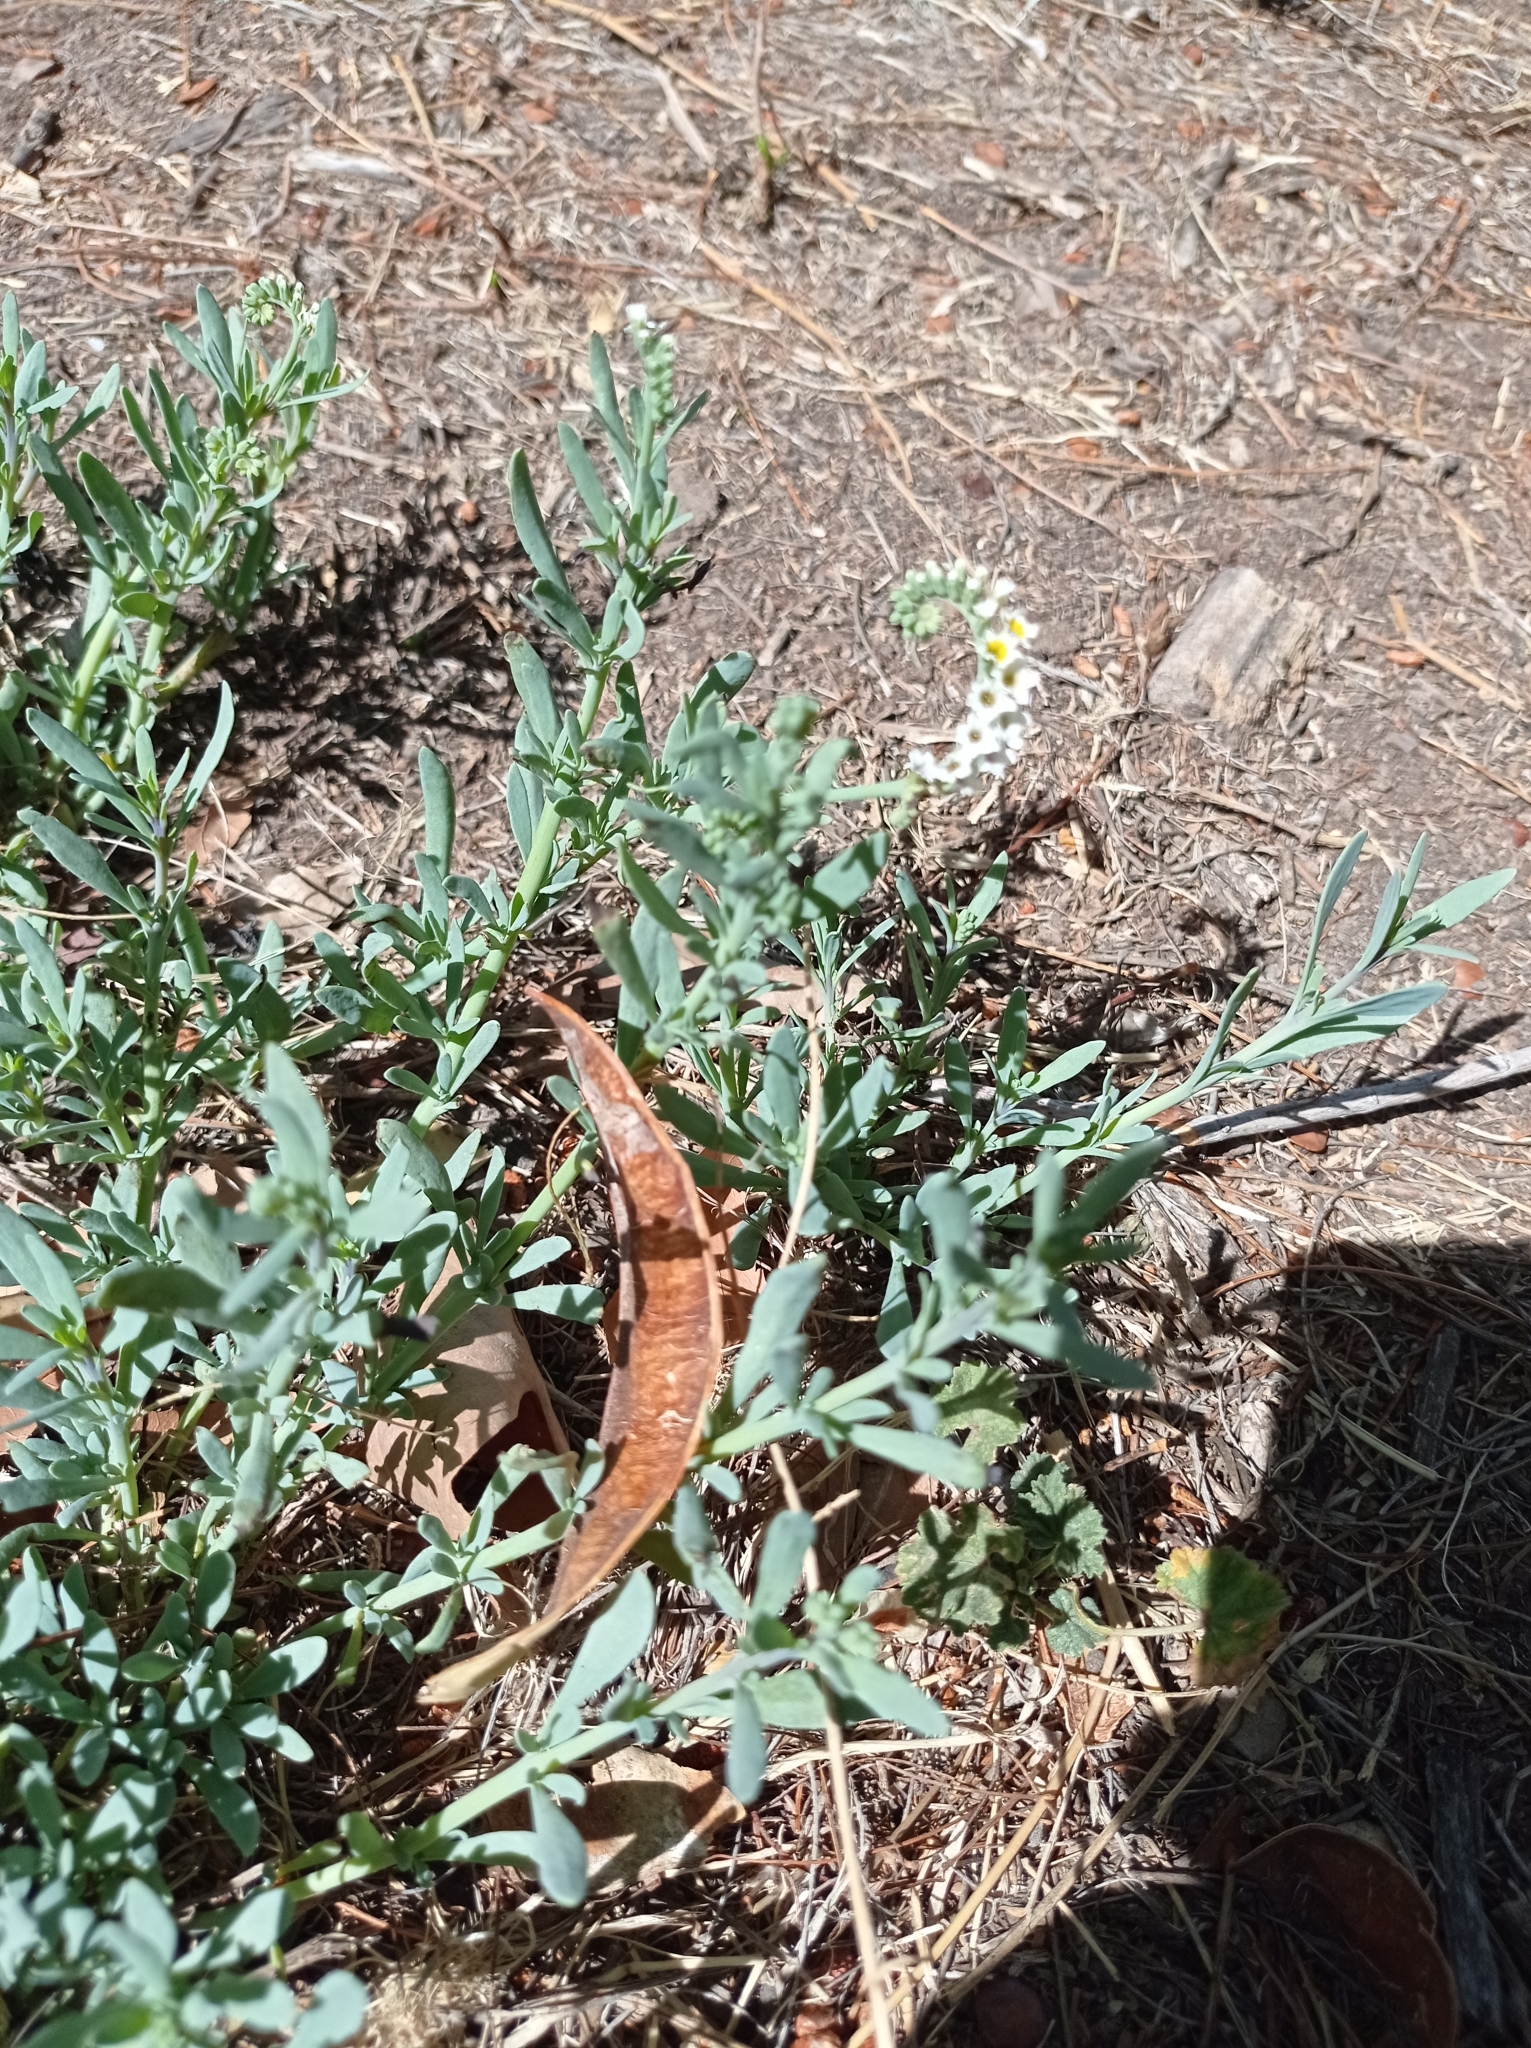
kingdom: Plantae
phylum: Tracheophyta
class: Magnoliopsida
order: Boraginales
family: Heliotropiaceae
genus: Heliotropium
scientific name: Heliotropium curassavicum
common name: Seaside heliotrope
